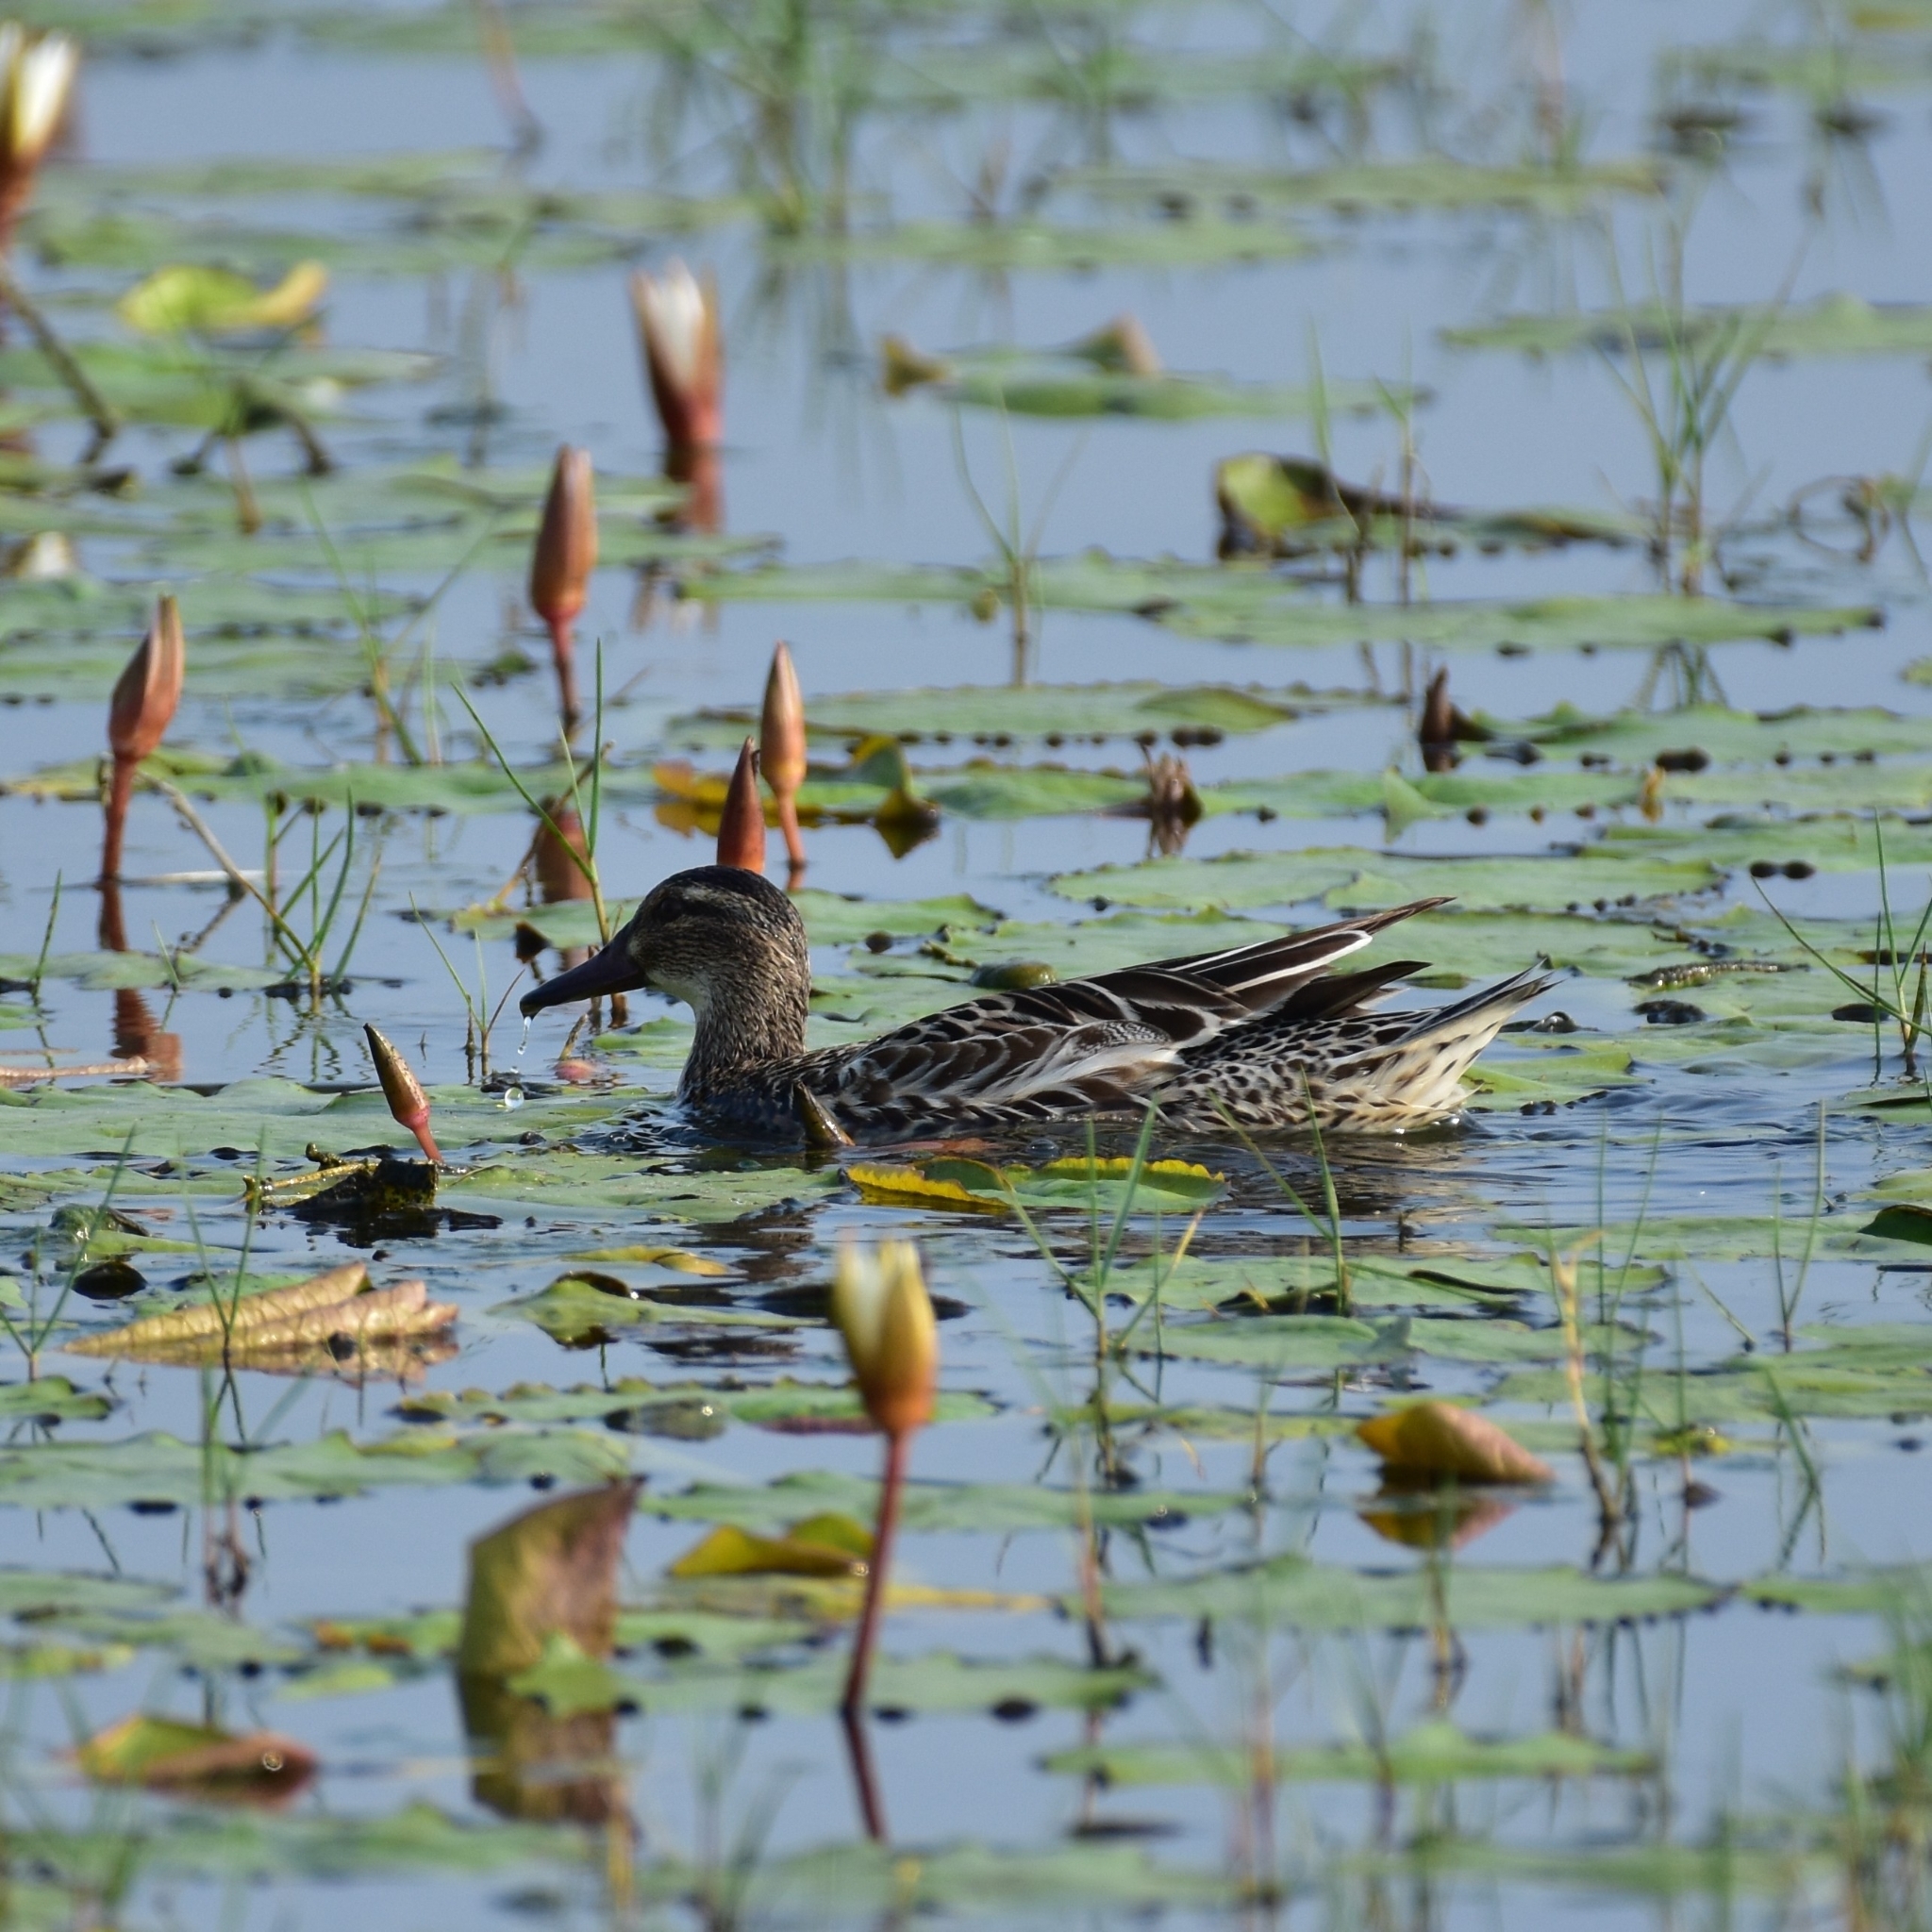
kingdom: Animalia
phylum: Chordata
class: Aves
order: Anseriformes
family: Anatidae
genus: Spatula
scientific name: Spatula querquedula
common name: Garganey
